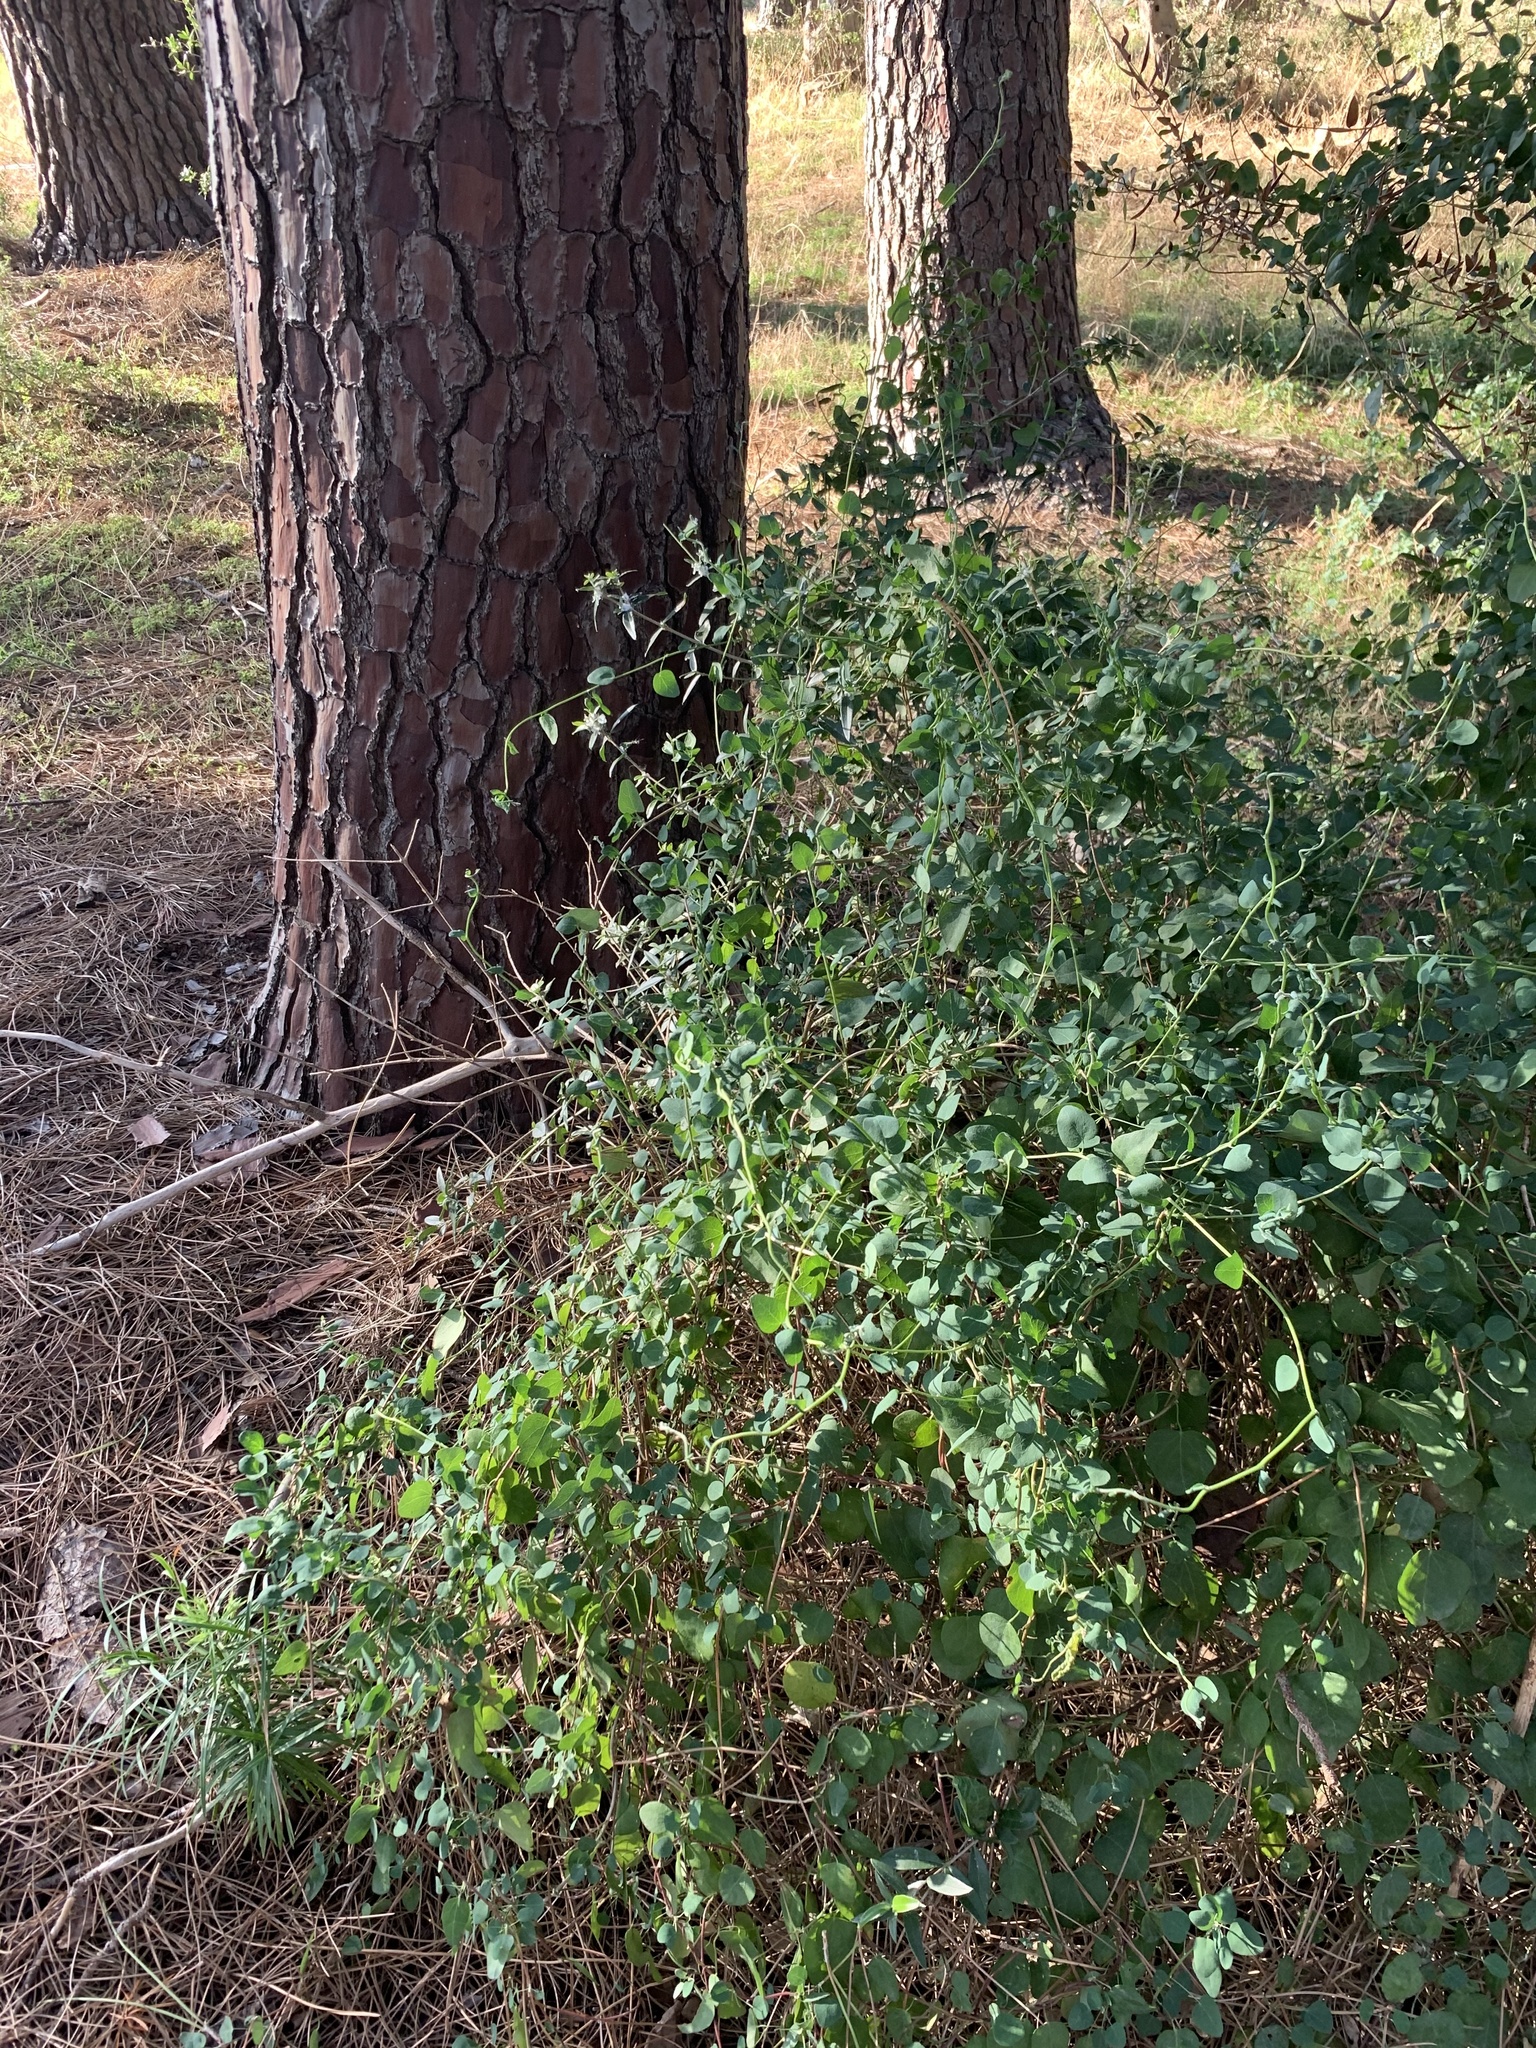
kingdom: Plantae
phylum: Tracheophyta
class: Magnoliopsida
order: Ranunculales
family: Menispermaceae
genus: Cissampelos
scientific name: Cissampelos capensis
